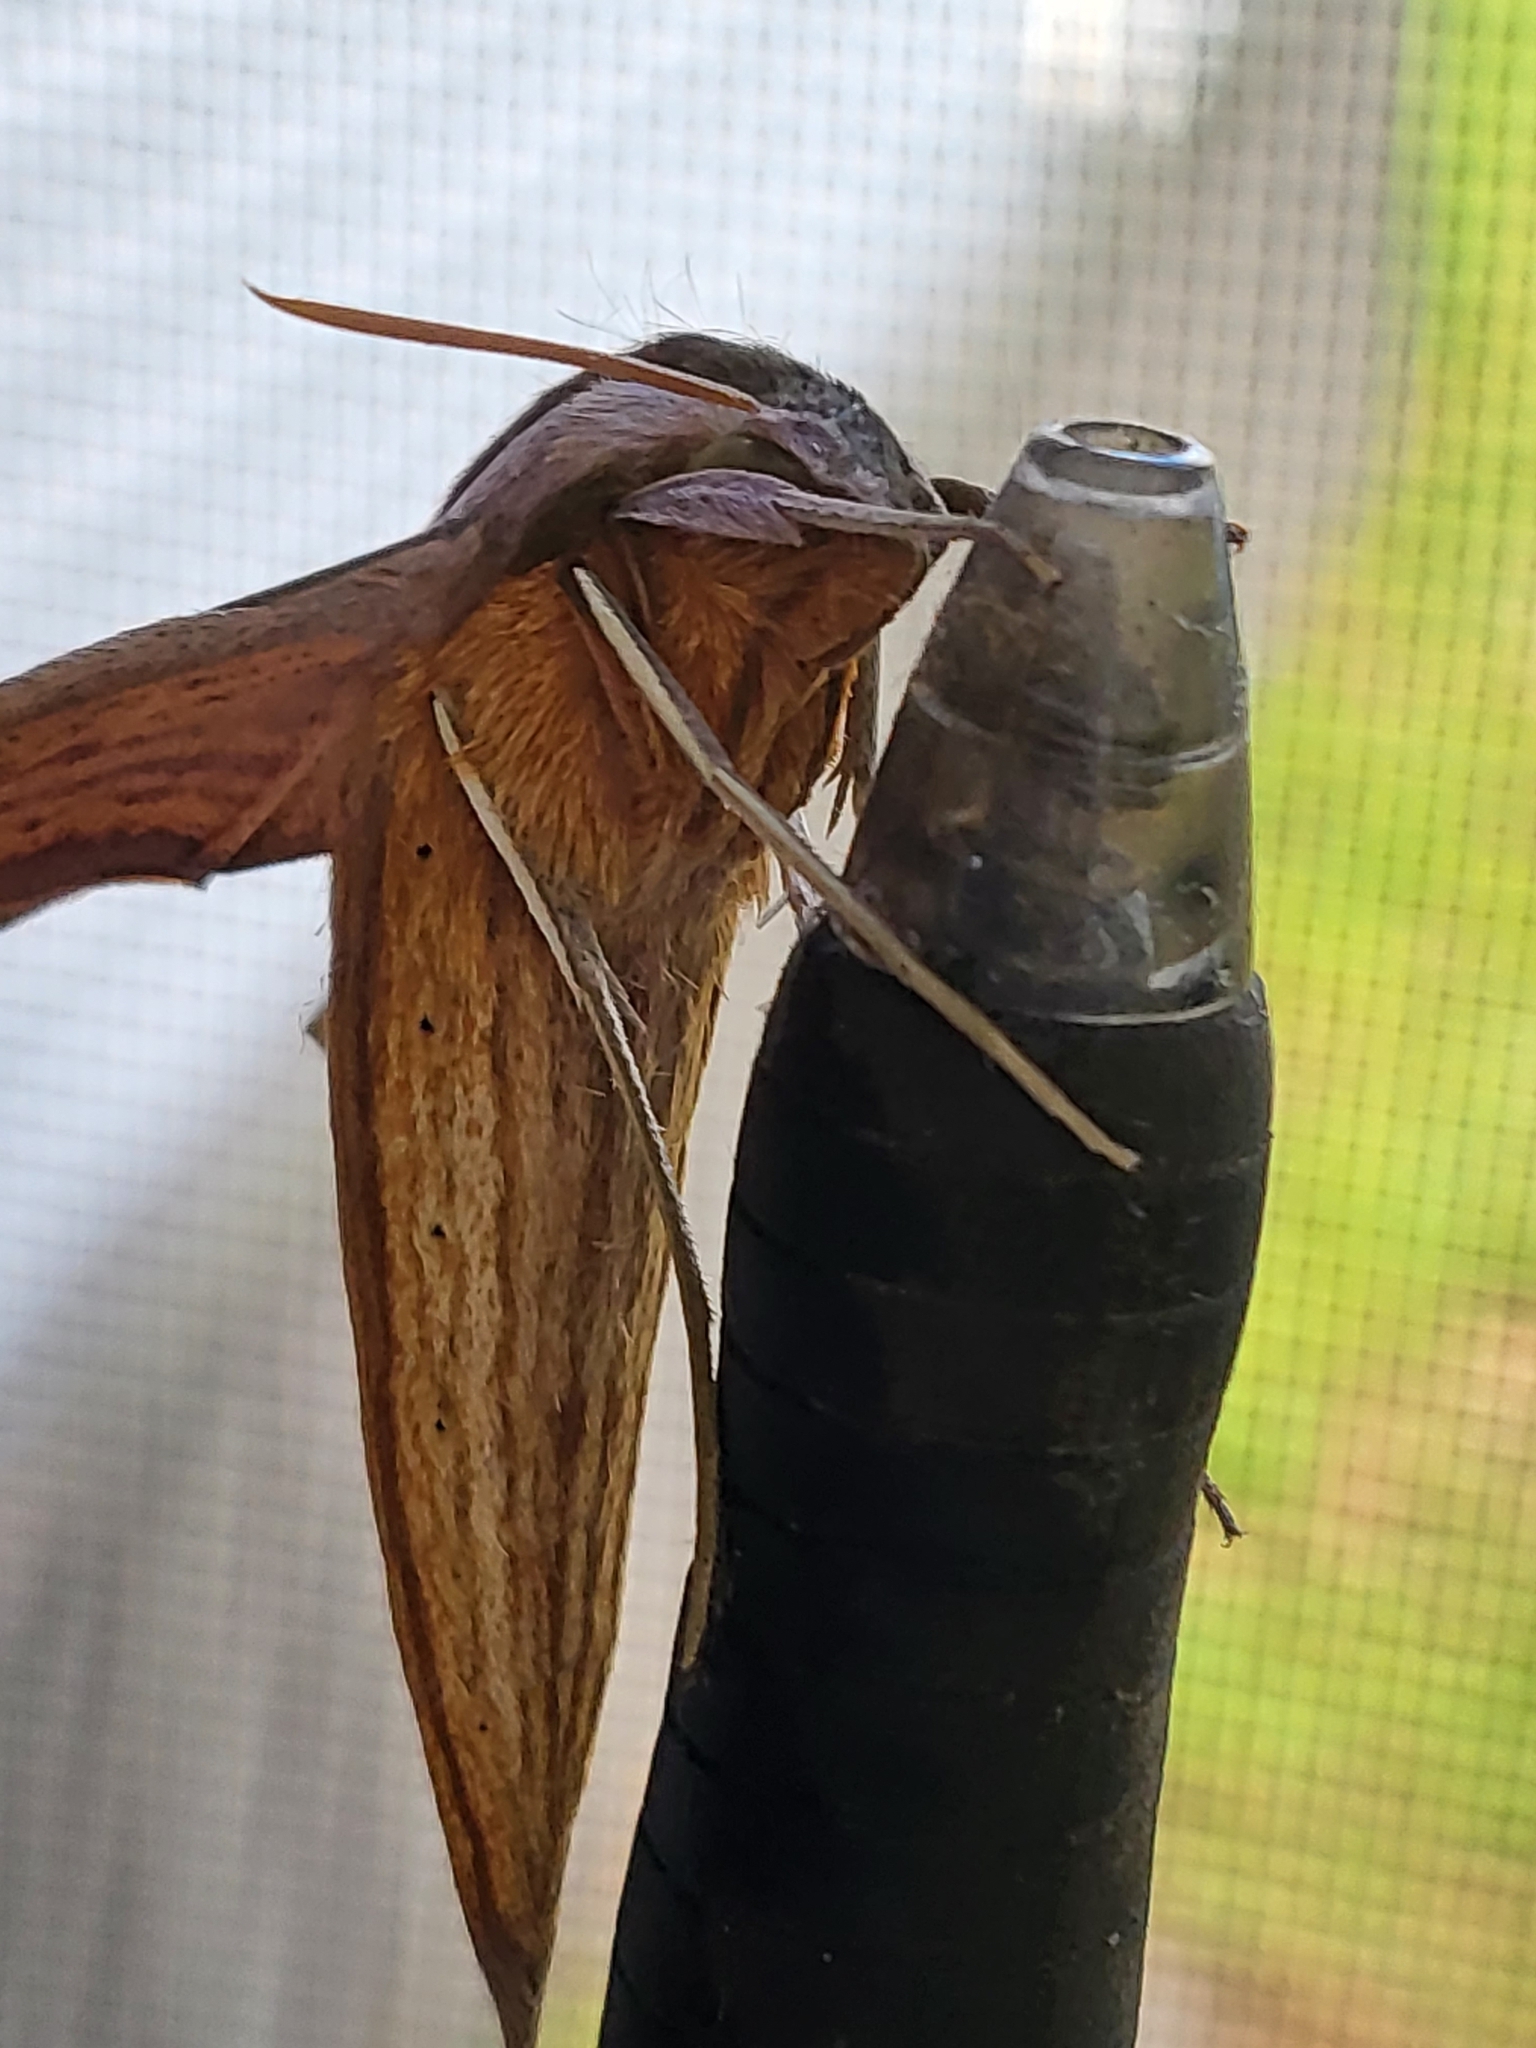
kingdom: Animalia
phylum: Arthropoda
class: Insecta
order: Lepidoptera
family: Sphingidae
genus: Xylophanes
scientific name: Xylophanes tersa
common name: Tersa sphinx
